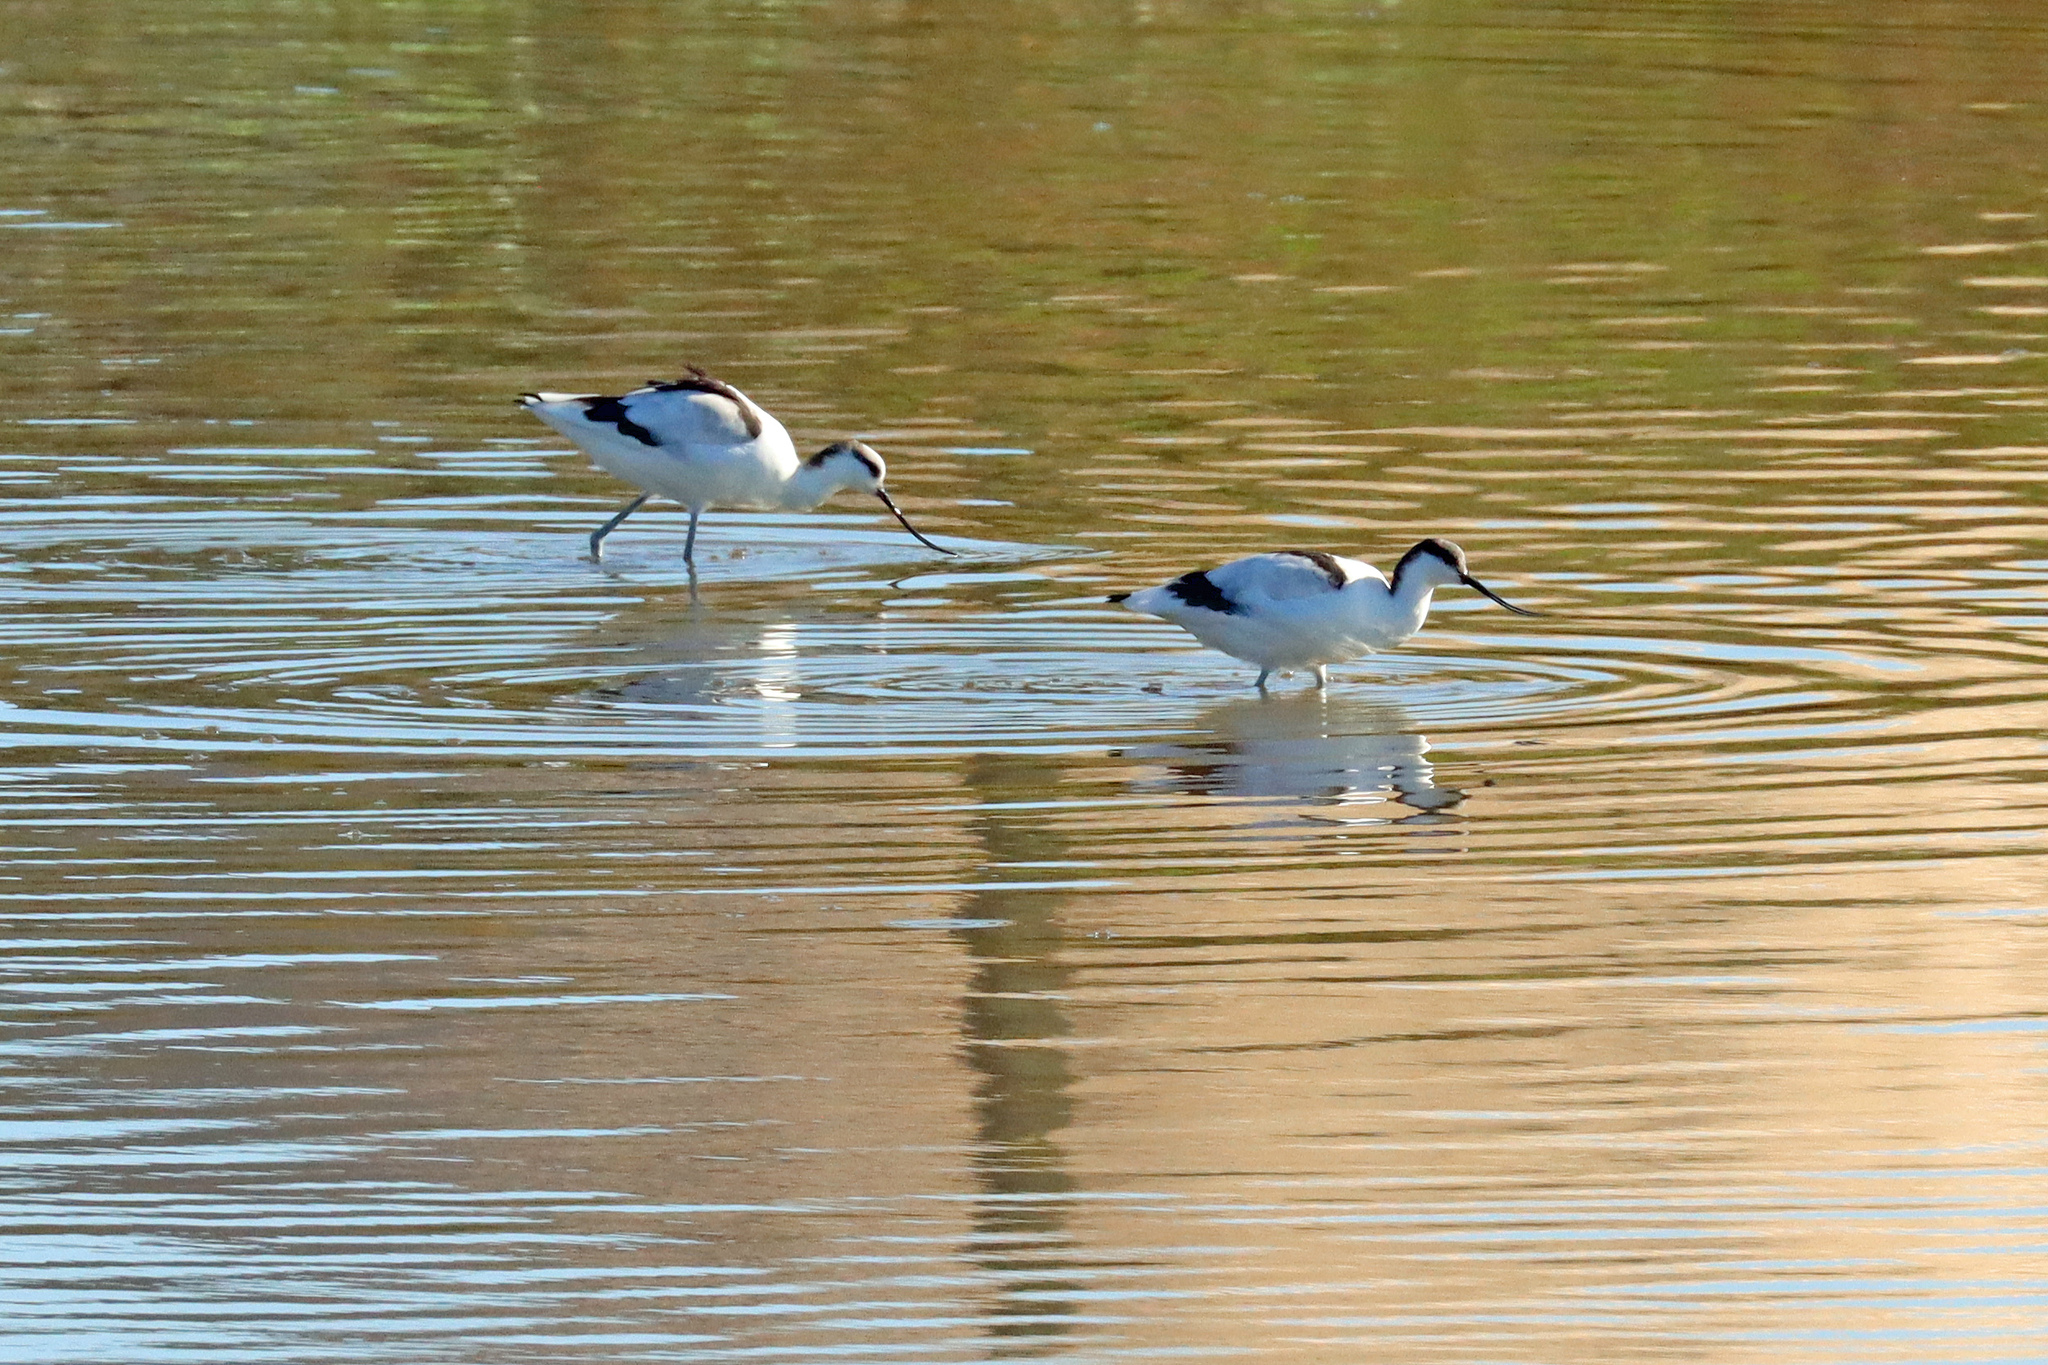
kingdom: Animalia
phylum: Chordata
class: Aves
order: Charadriiformes
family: Recurvirostridae
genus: Recurvirostra
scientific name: Recurvirostra avosetta
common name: Pied avocet
